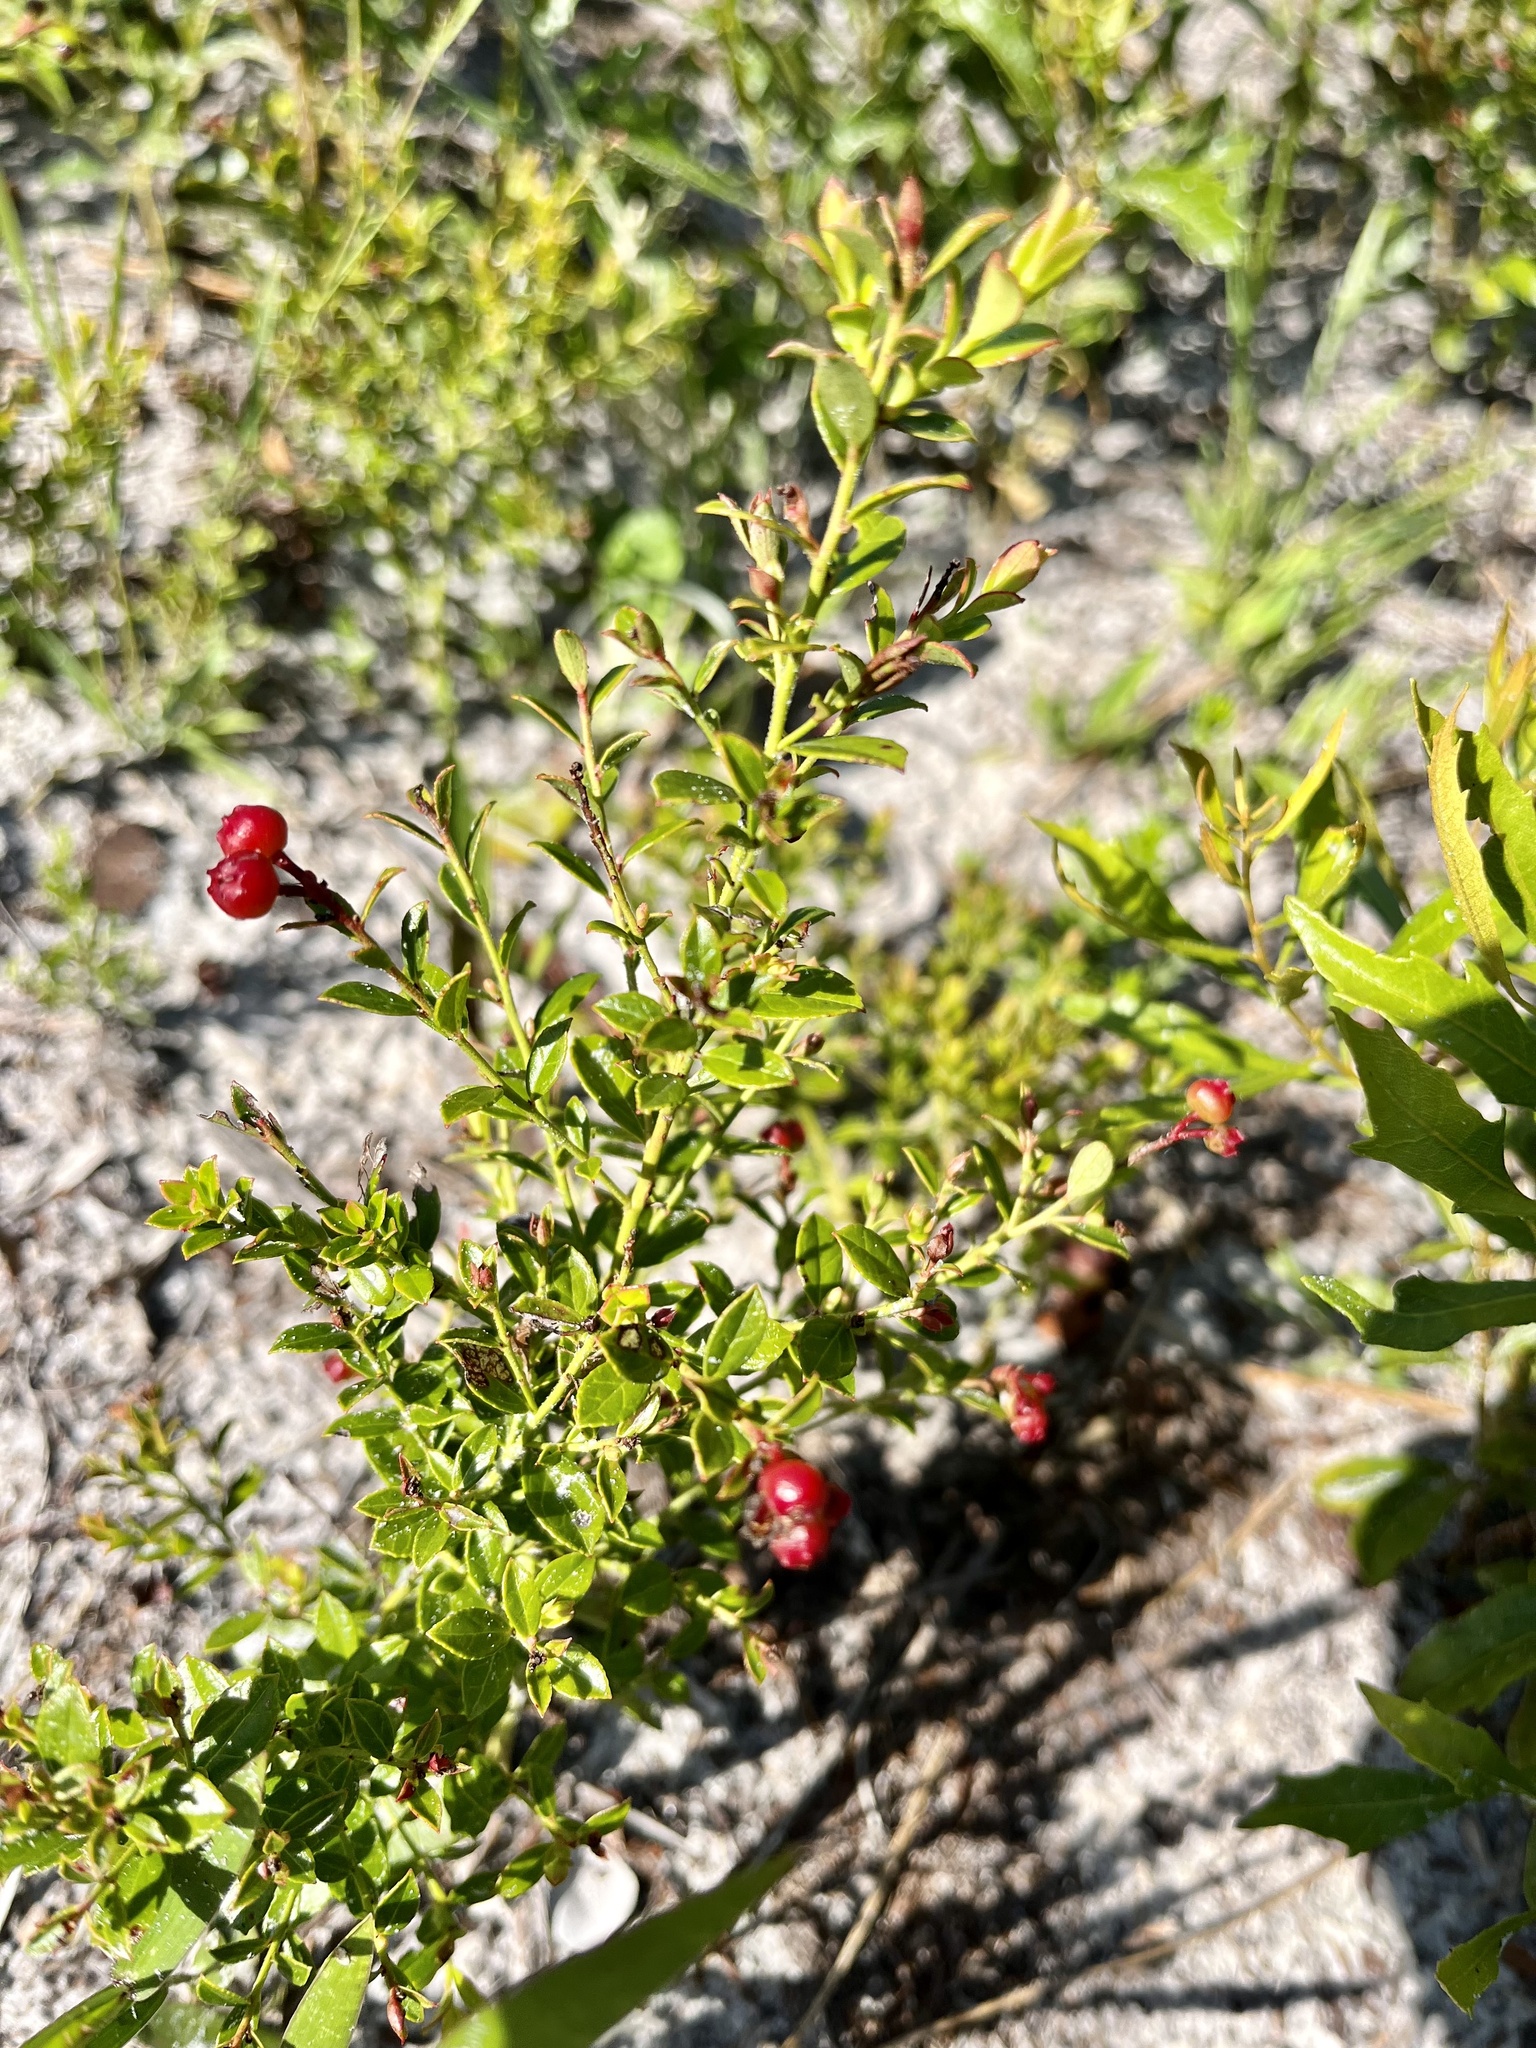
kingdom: Plantae
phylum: Tracheophyta
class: Magnoliopsida
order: Ericales
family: Ericaceae
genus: Vaccinium
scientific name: Vaccinium myrsinites
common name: Evergreen blueberry
